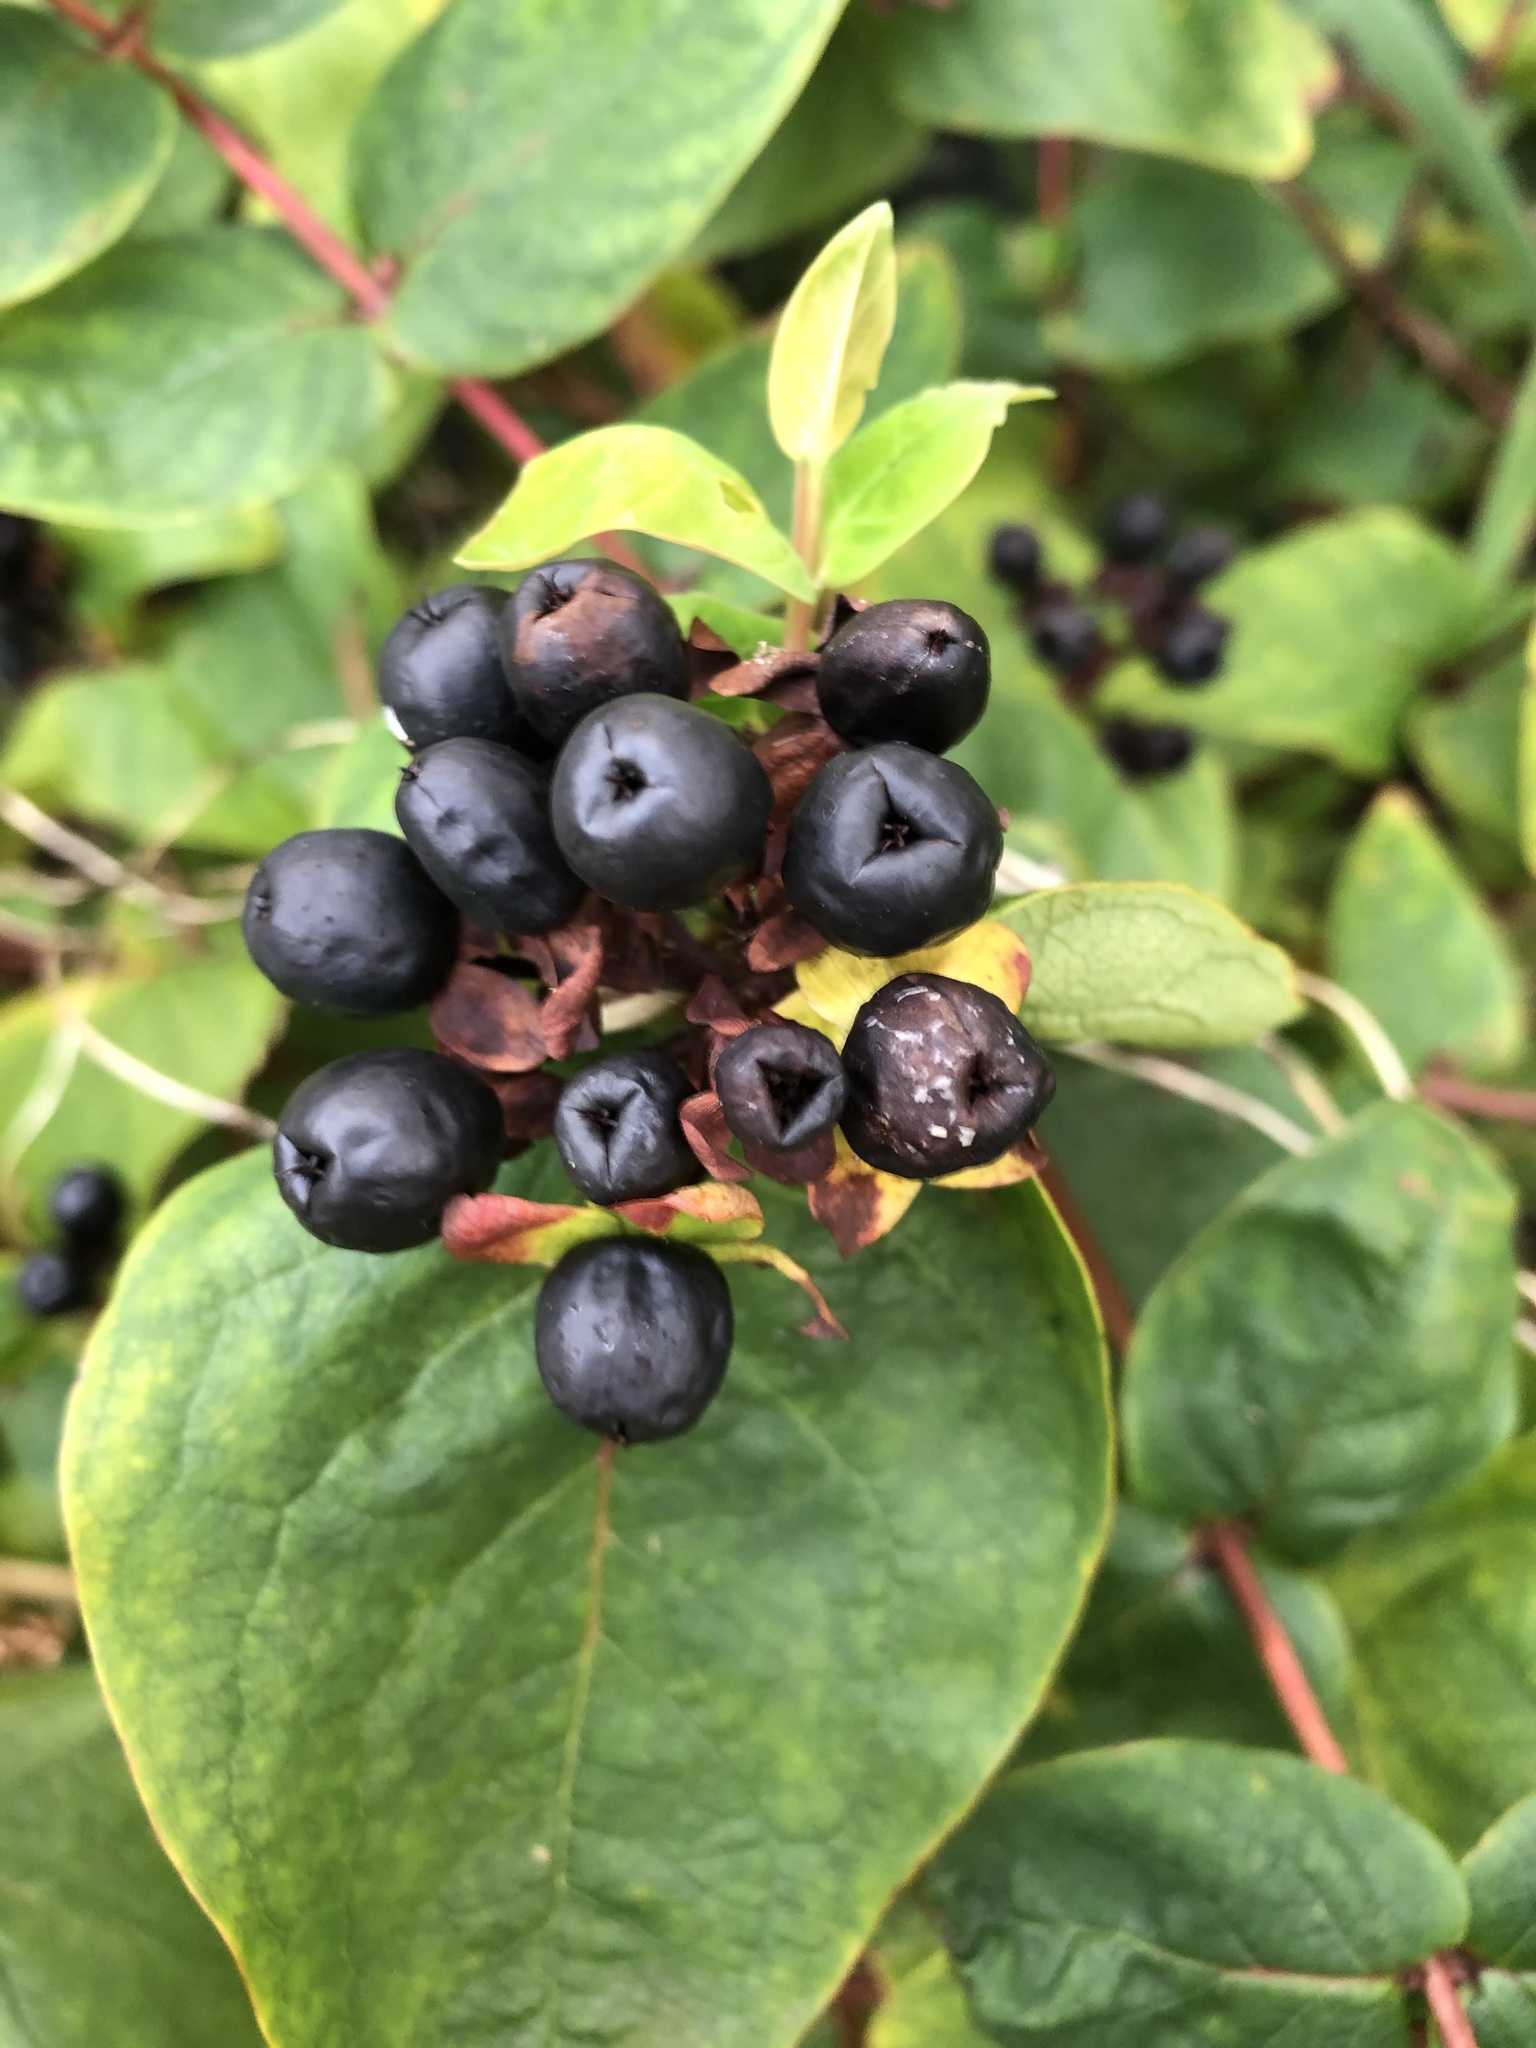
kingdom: Plantae
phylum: Tracheophyta
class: Magnoliopsida
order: Malpighiales
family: Hypericaceae
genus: Hypericum
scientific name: Hypericum androsaemum
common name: Sweet-amber
